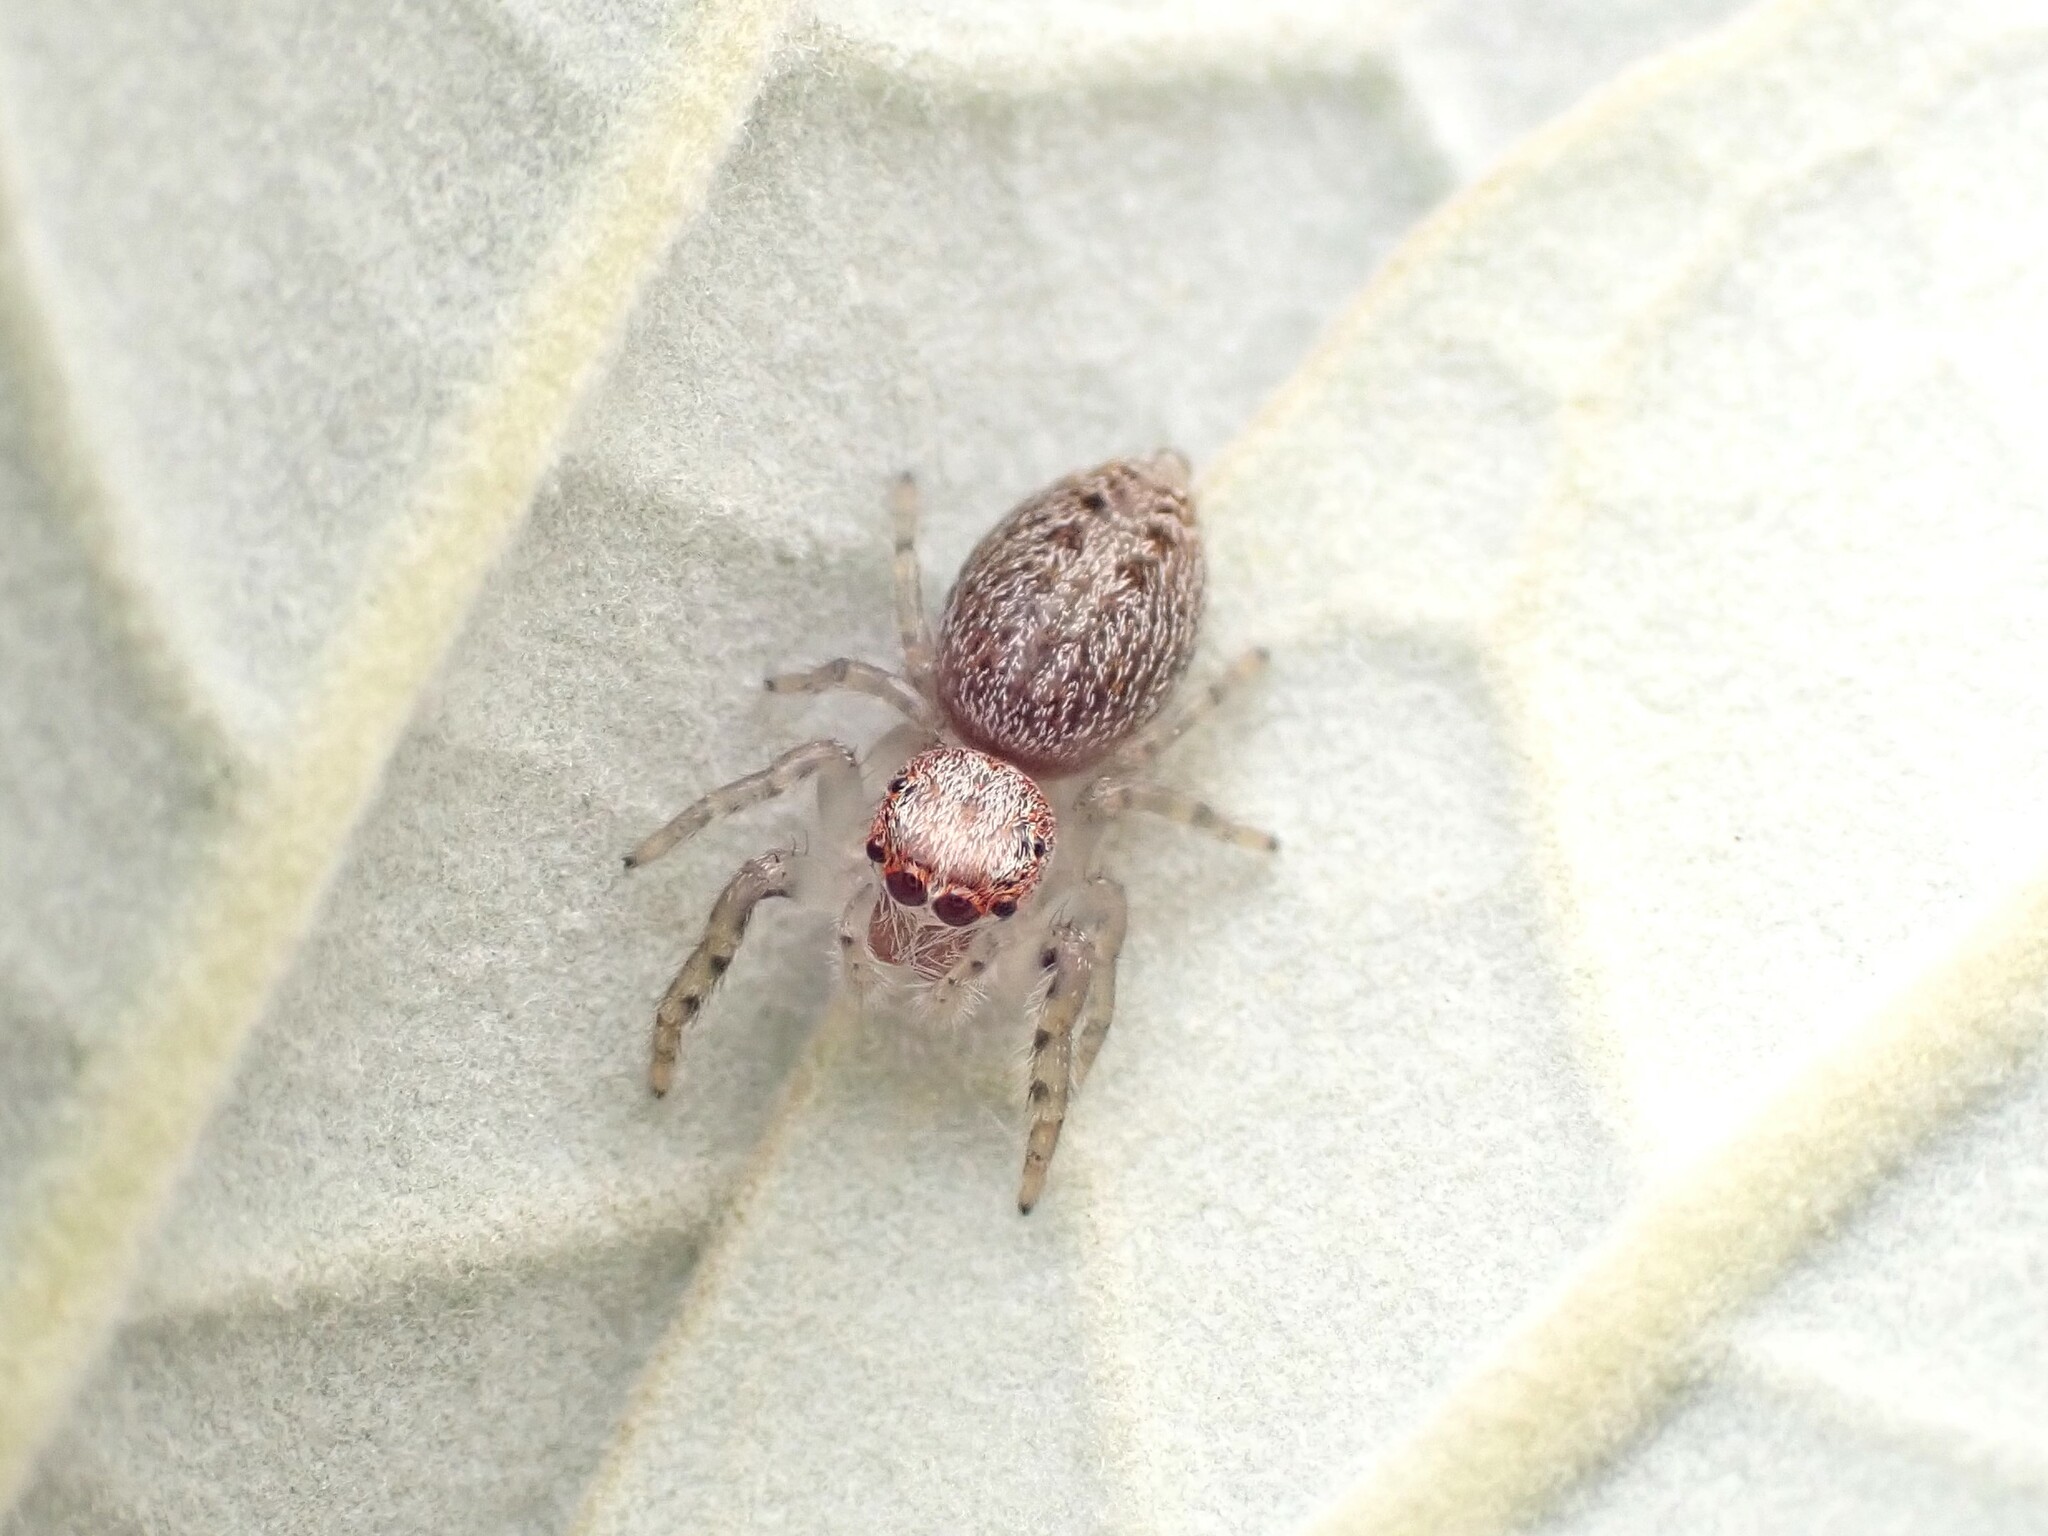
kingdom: Animalia
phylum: Arthropoda
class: Arachnida
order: Araneae
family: Salticidae
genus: Opisthoncus
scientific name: Opisthoncus polyphemus
